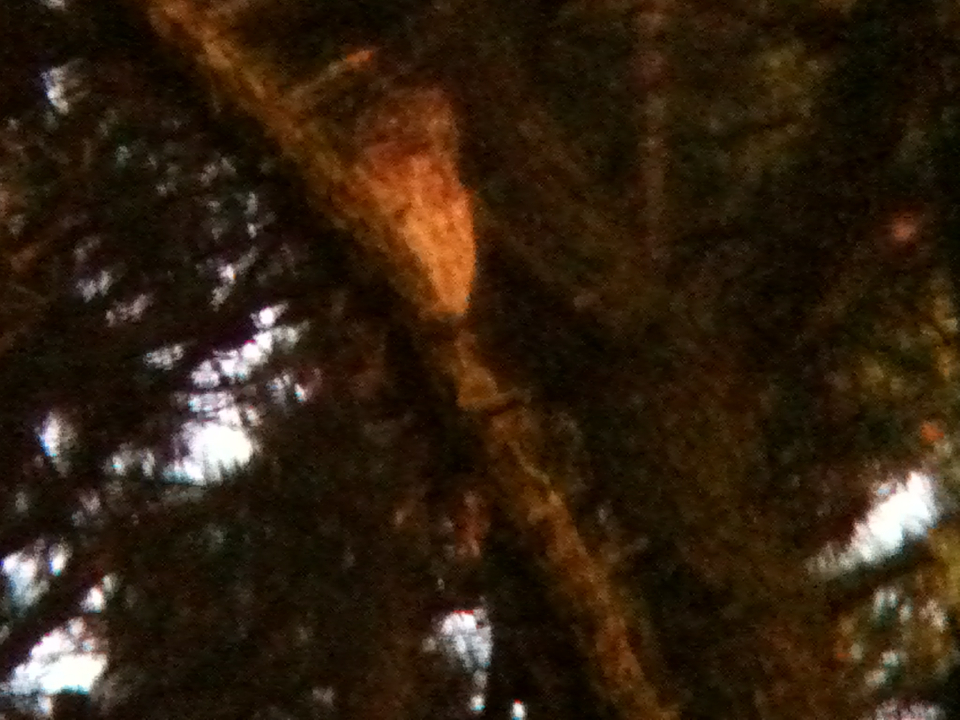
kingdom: Animalia
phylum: Chordata
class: Aves
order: Strigiformes
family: Strigidae
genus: Bubo
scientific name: Bubo virginianus
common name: Great horned owl
